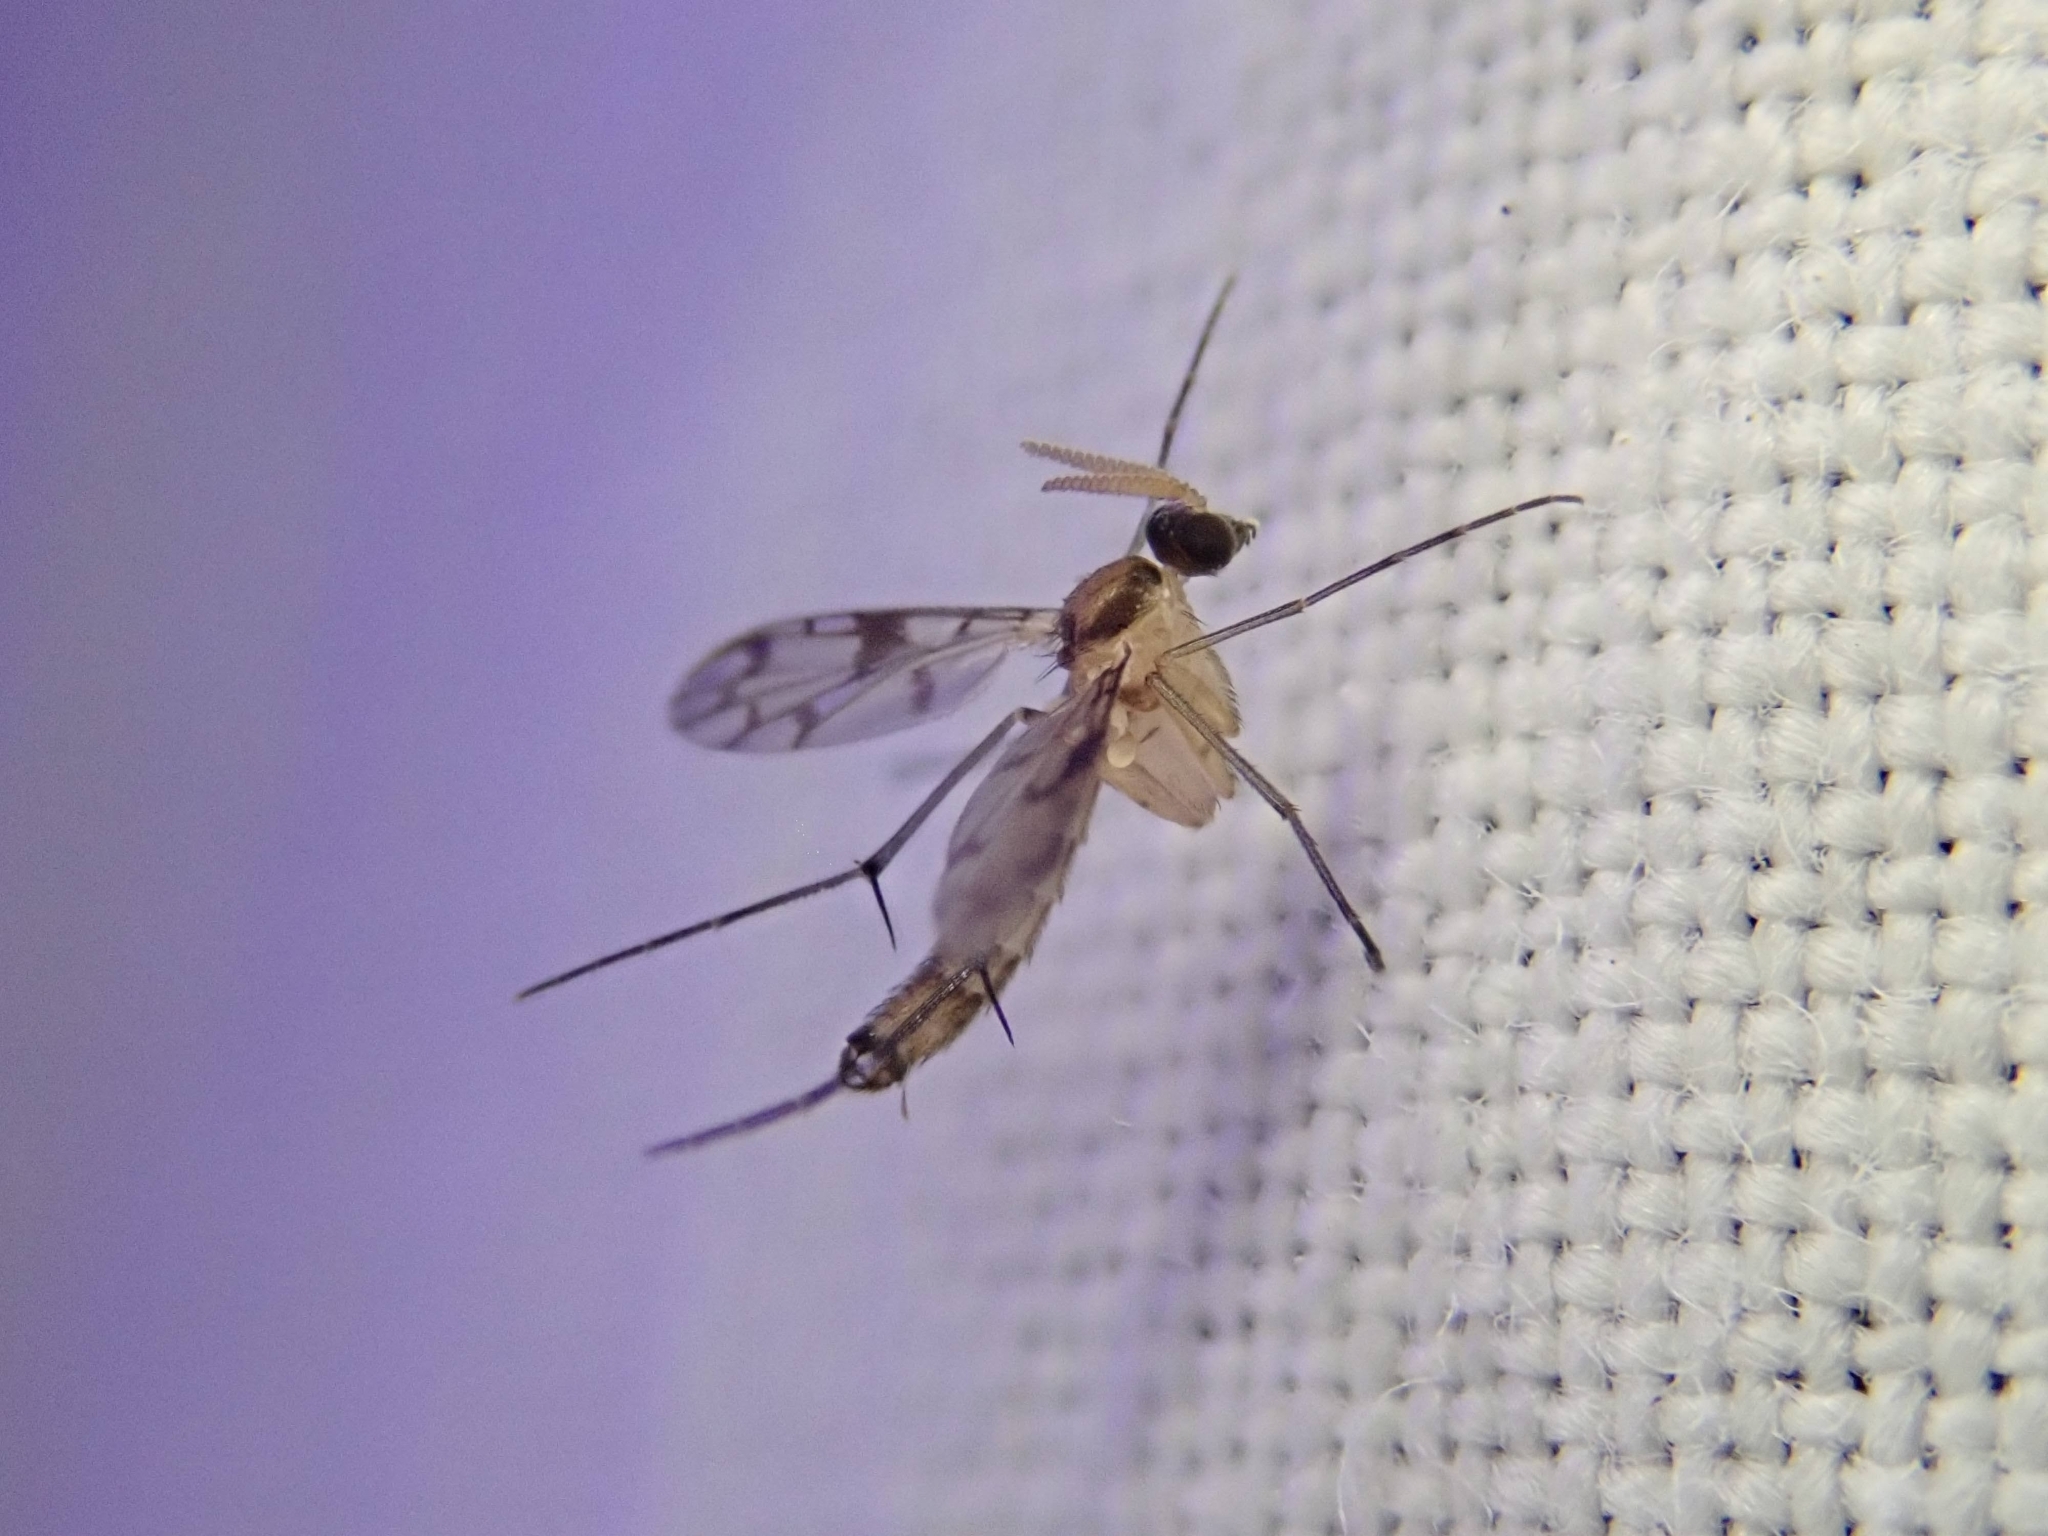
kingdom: Animalia
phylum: Arthropoda
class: Insecta
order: Diptera
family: Keroplatidae
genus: Proceroplatus
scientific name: Proceroplatus
